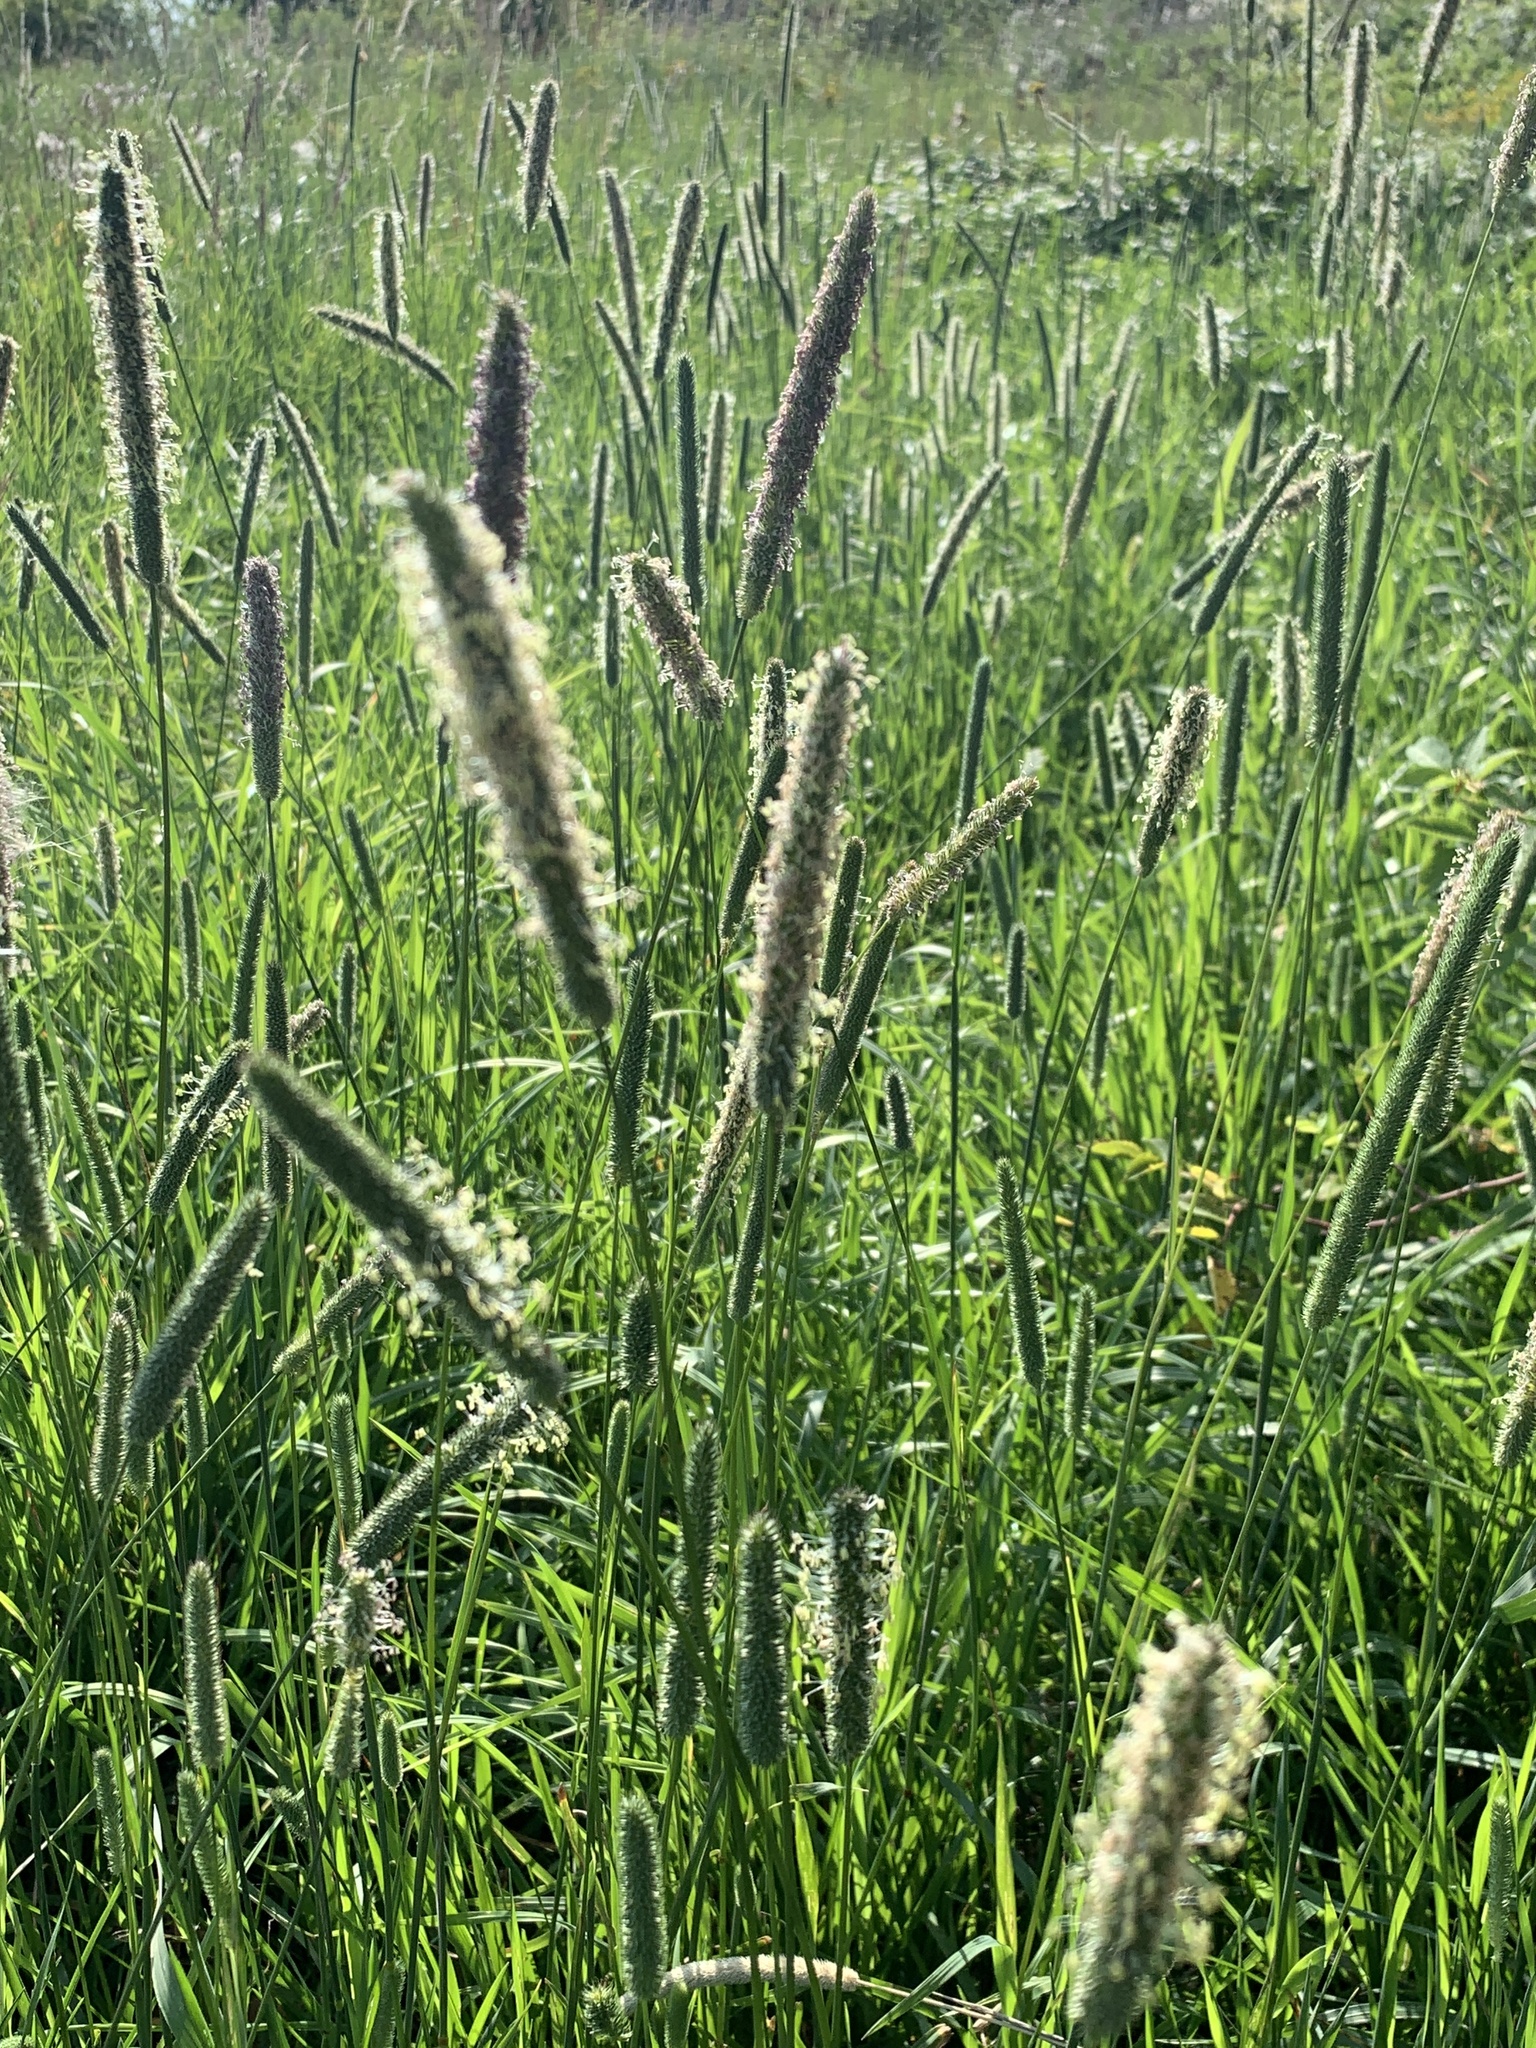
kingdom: Plantae
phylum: Tracheophyta
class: Liliopsida
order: Poales
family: Poaceae
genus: Phleum
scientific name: Phleum pratense
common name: Timothy grass
